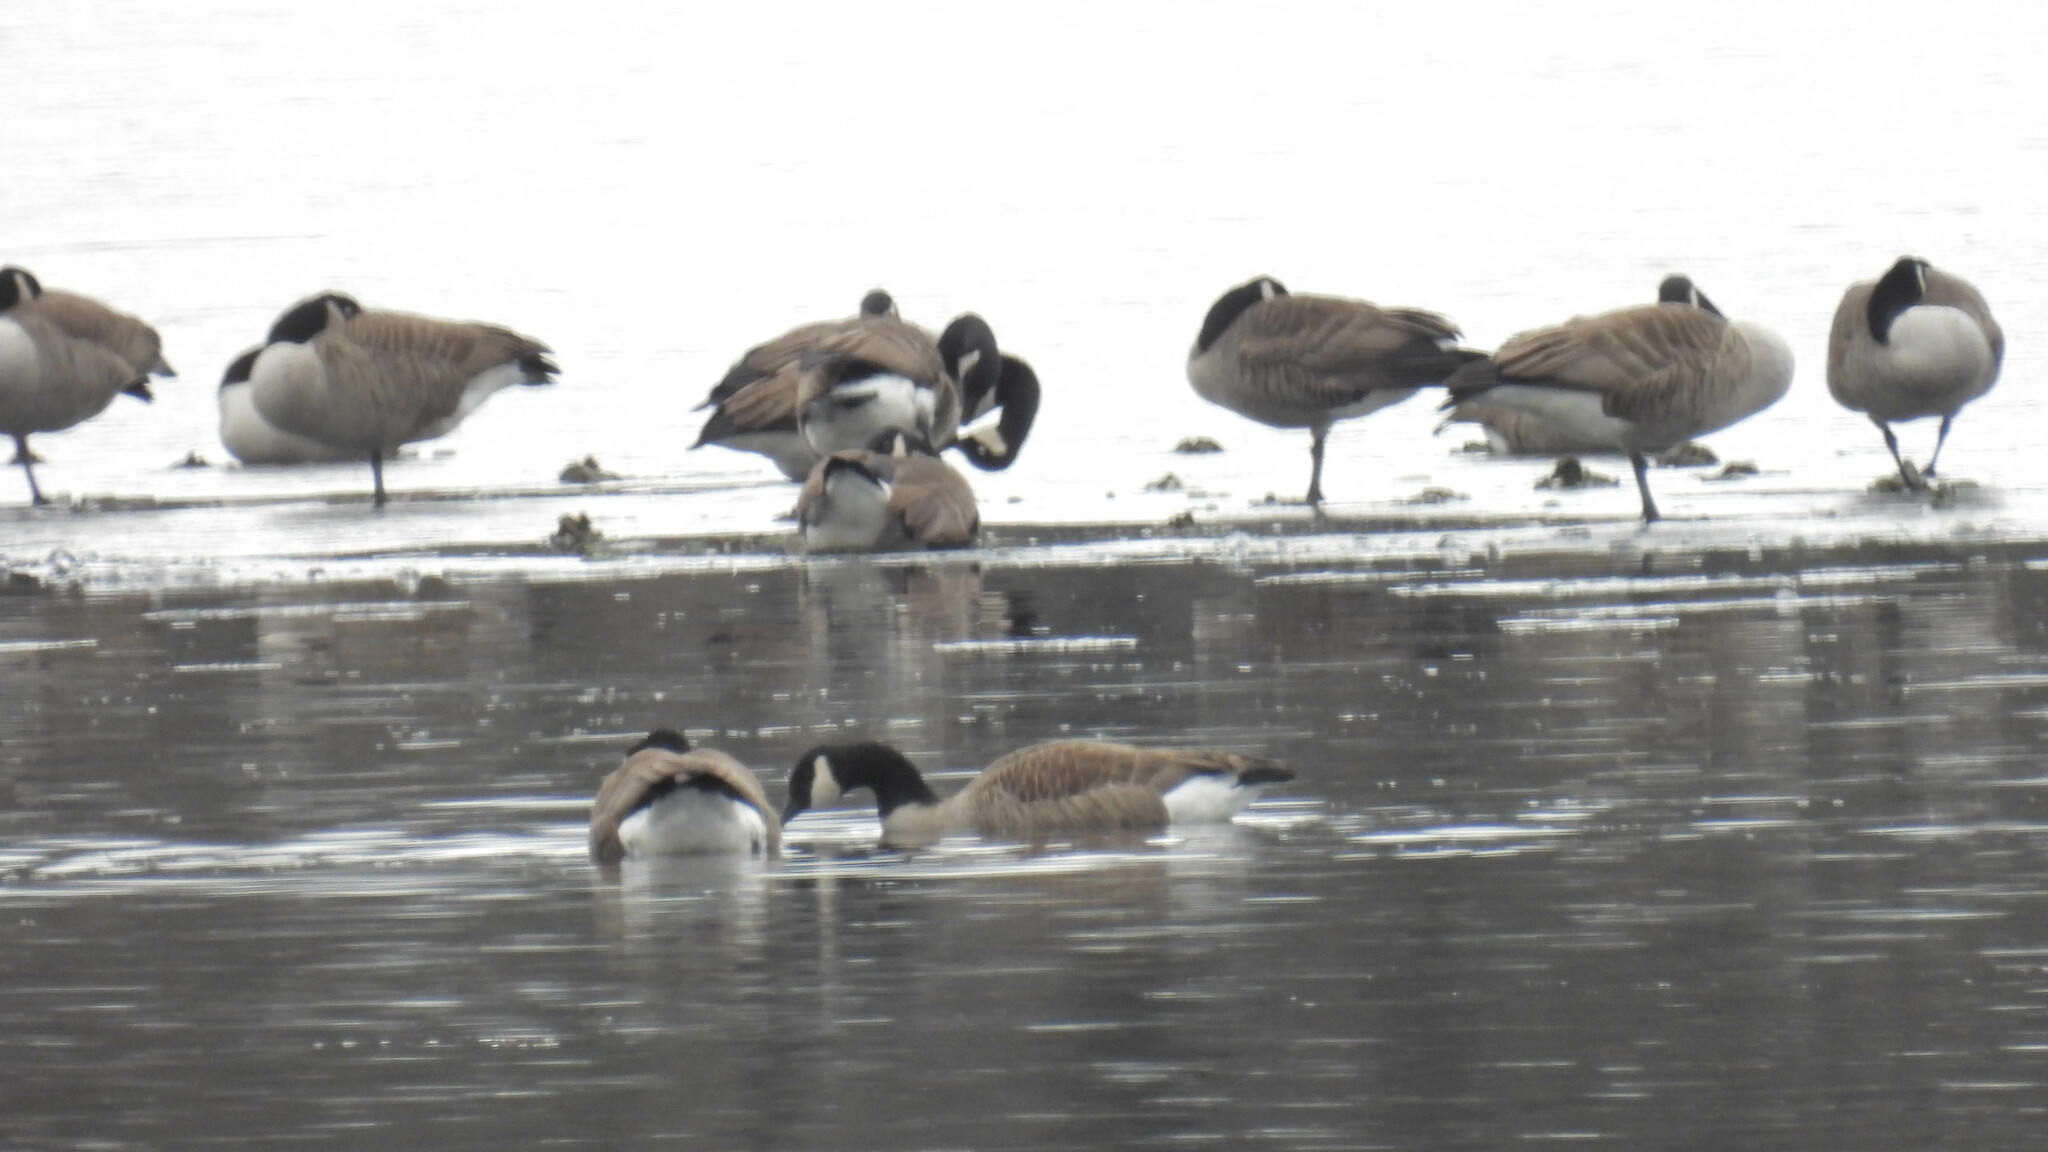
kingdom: Animalia
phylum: Chordata
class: Aves
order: Anseriformes
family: Anatidae
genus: Branta
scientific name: Branta canadensis
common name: Canada goose
